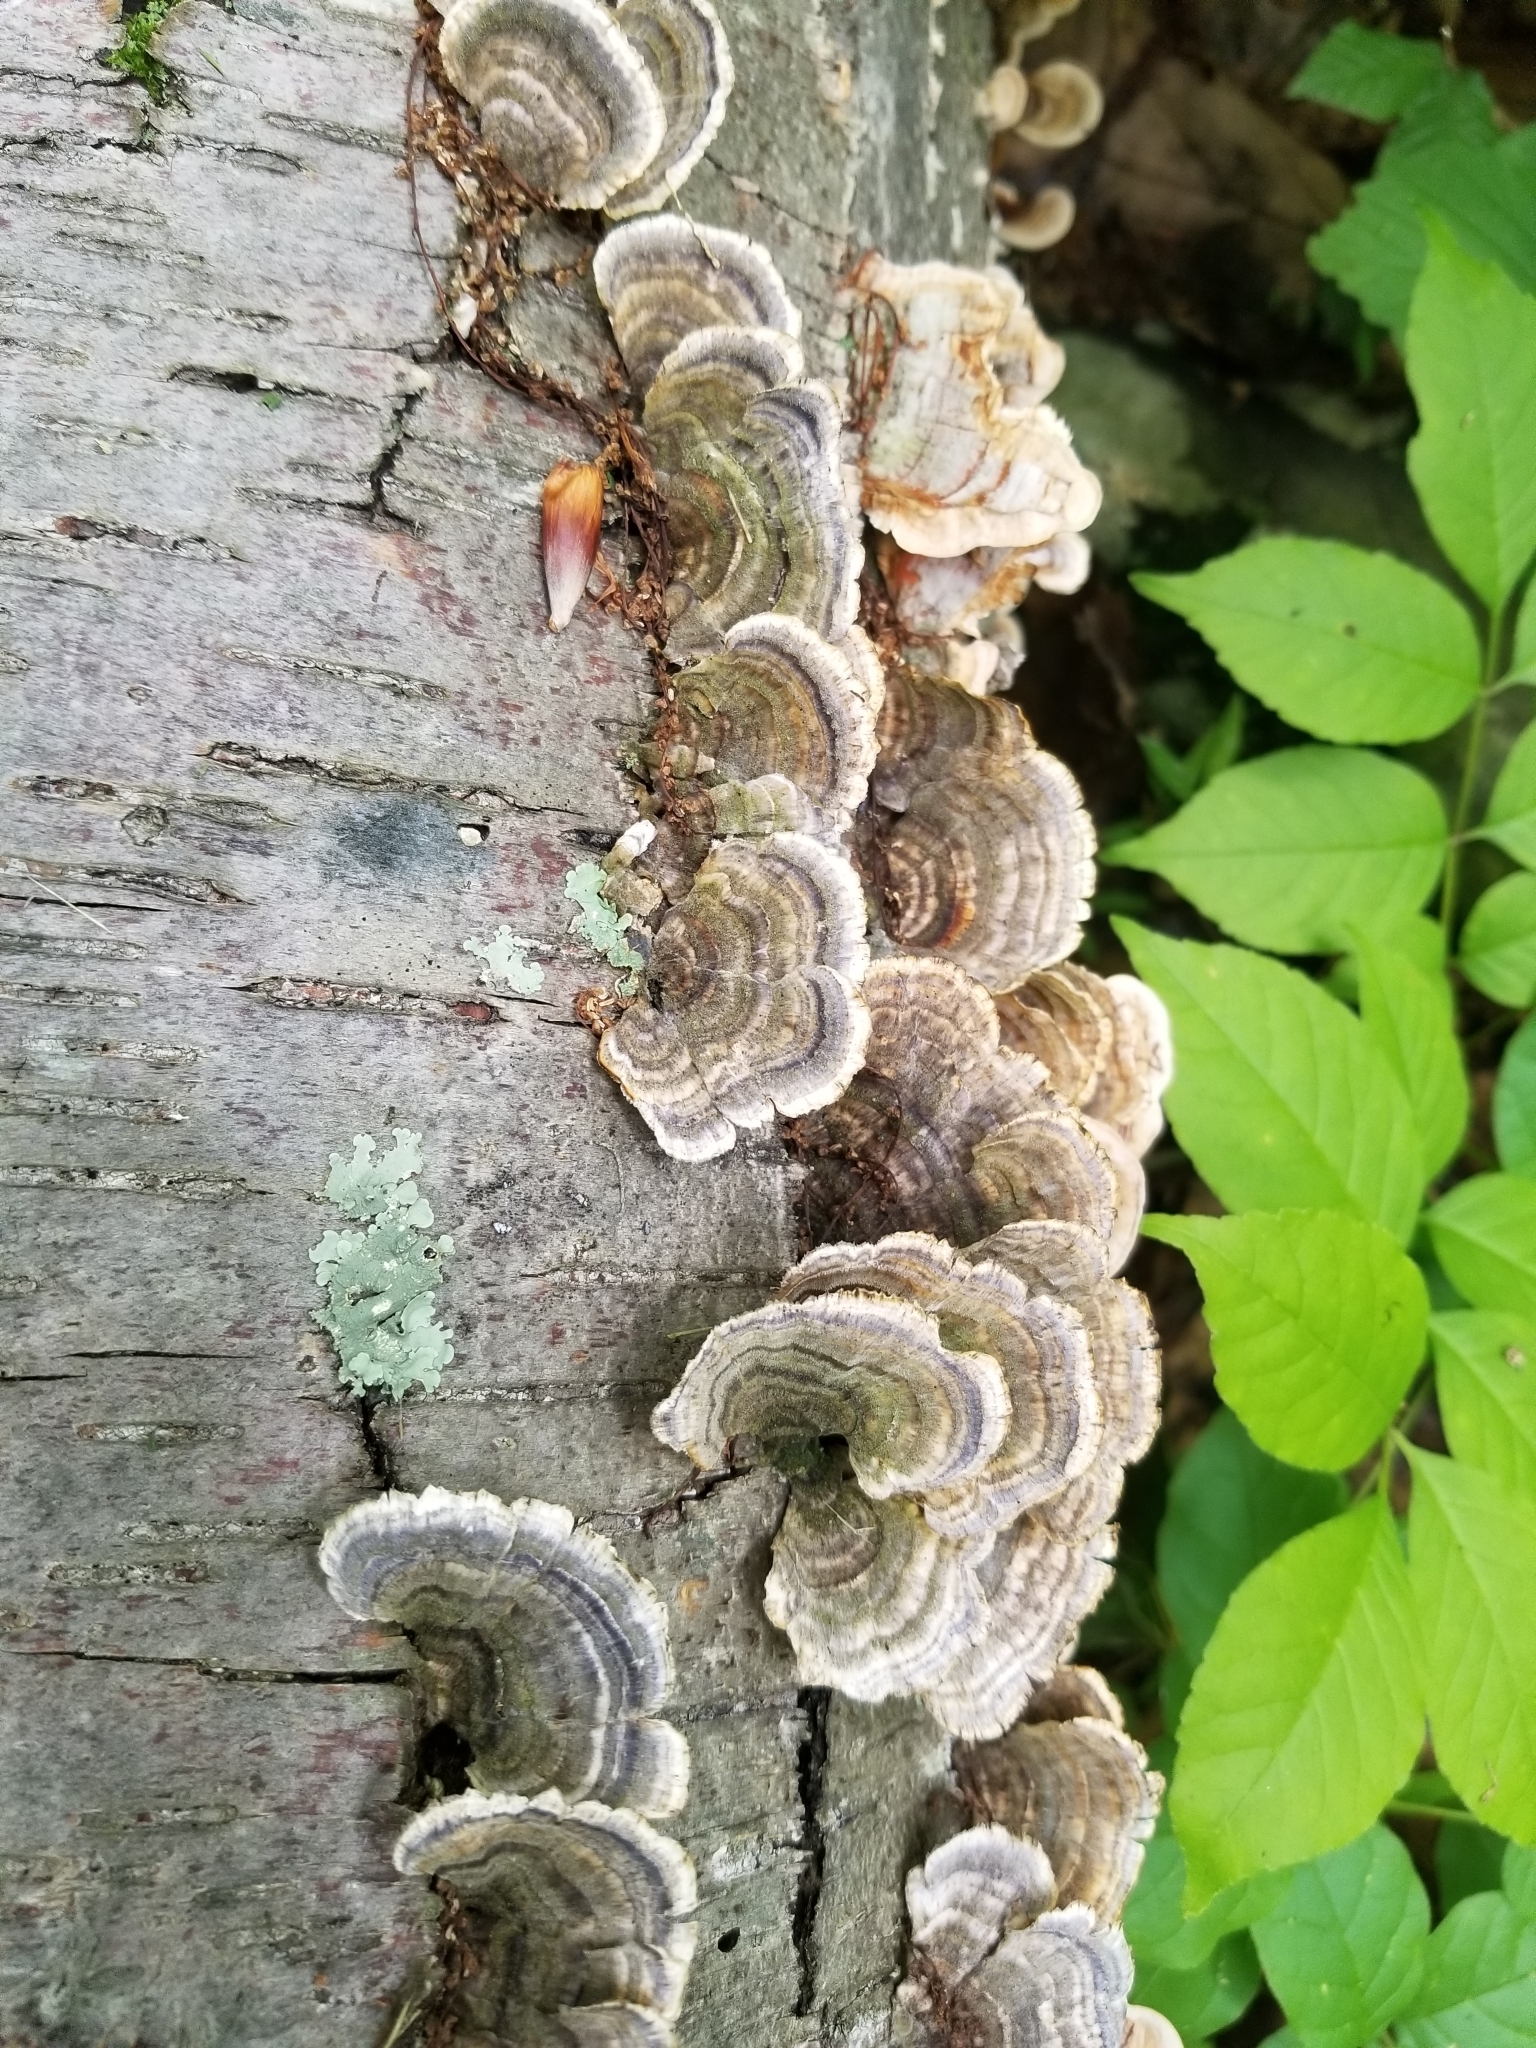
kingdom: Fungi
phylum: Basidiomycota
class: Agaricomycetes
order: Polyporales
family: Polyporaceae
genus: Trametes
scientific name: Trametes versicolor
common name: Turkeytail
